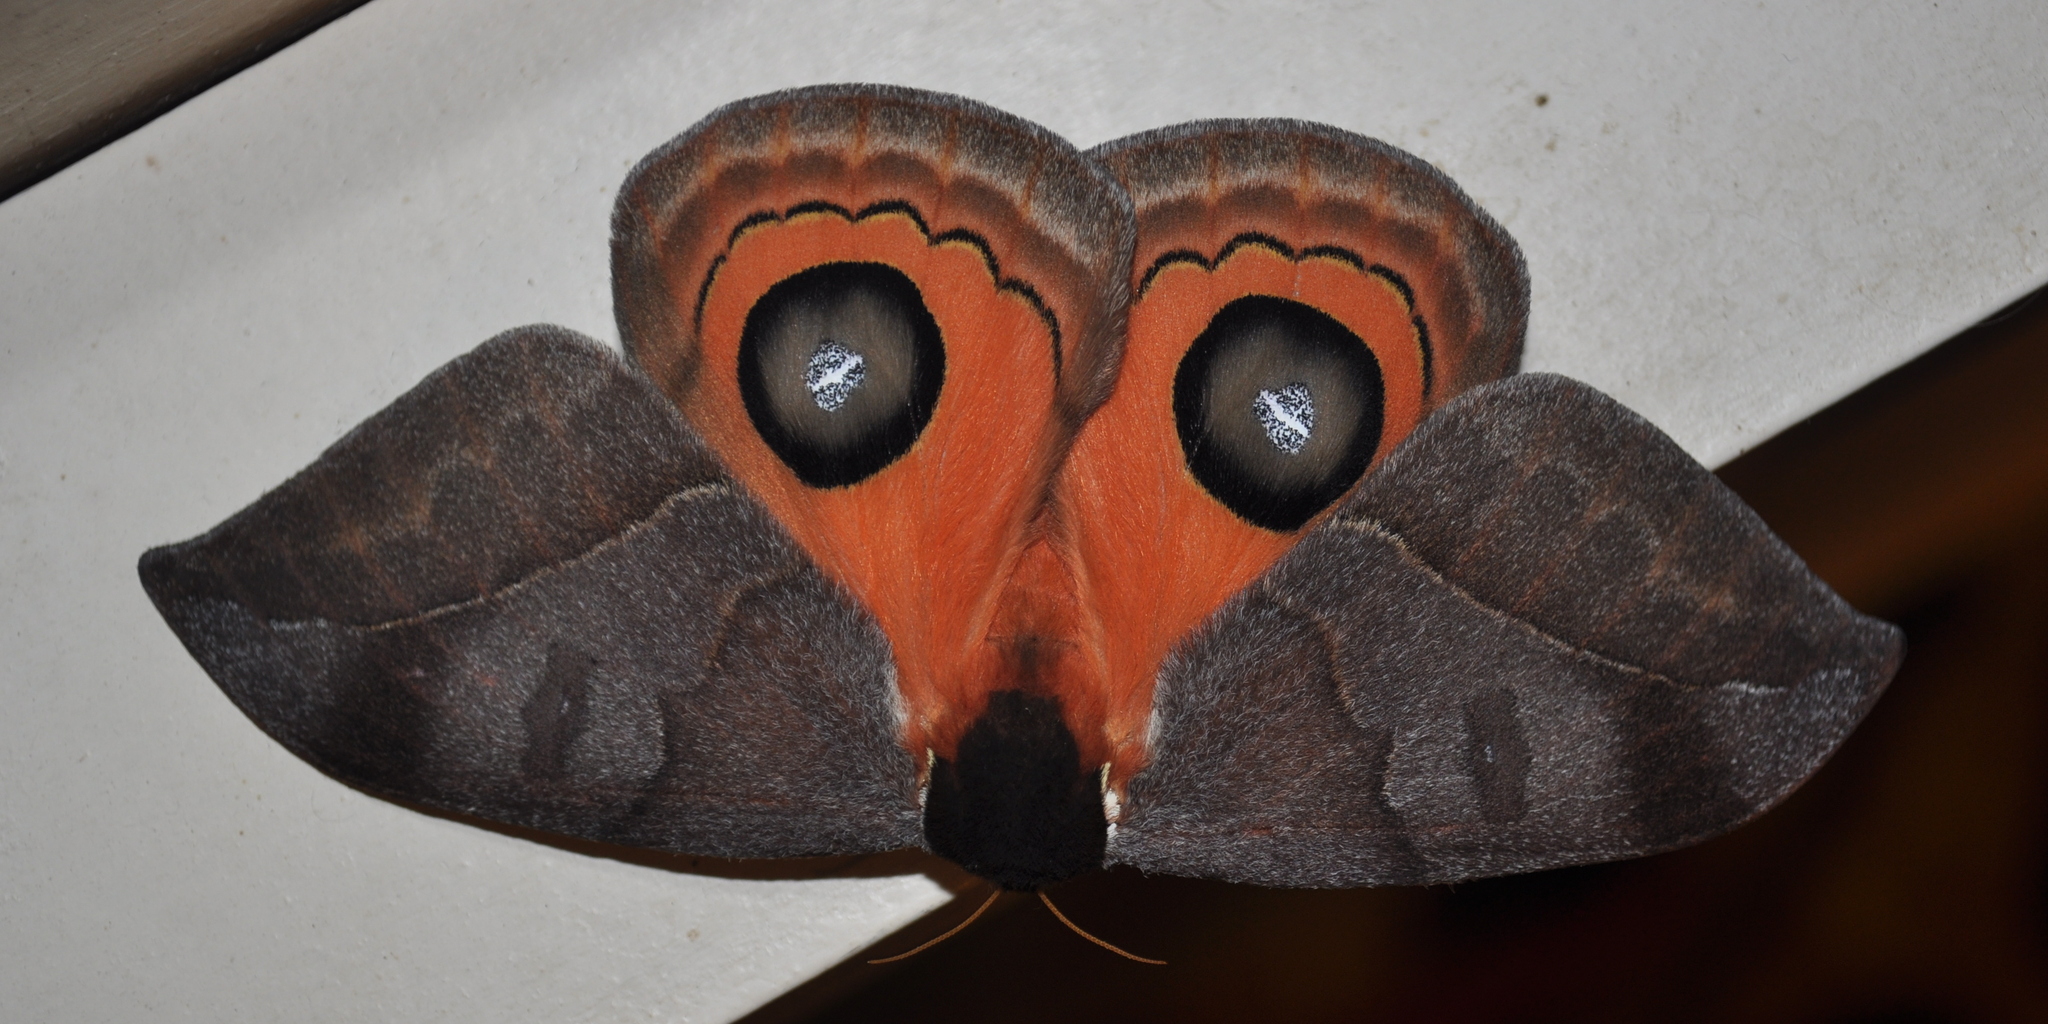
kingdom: Animalia
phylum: Arthropoda
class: Insecta
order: Lepidoptera
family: Saturniidae
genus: Automeris
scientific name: Automeris illustris
